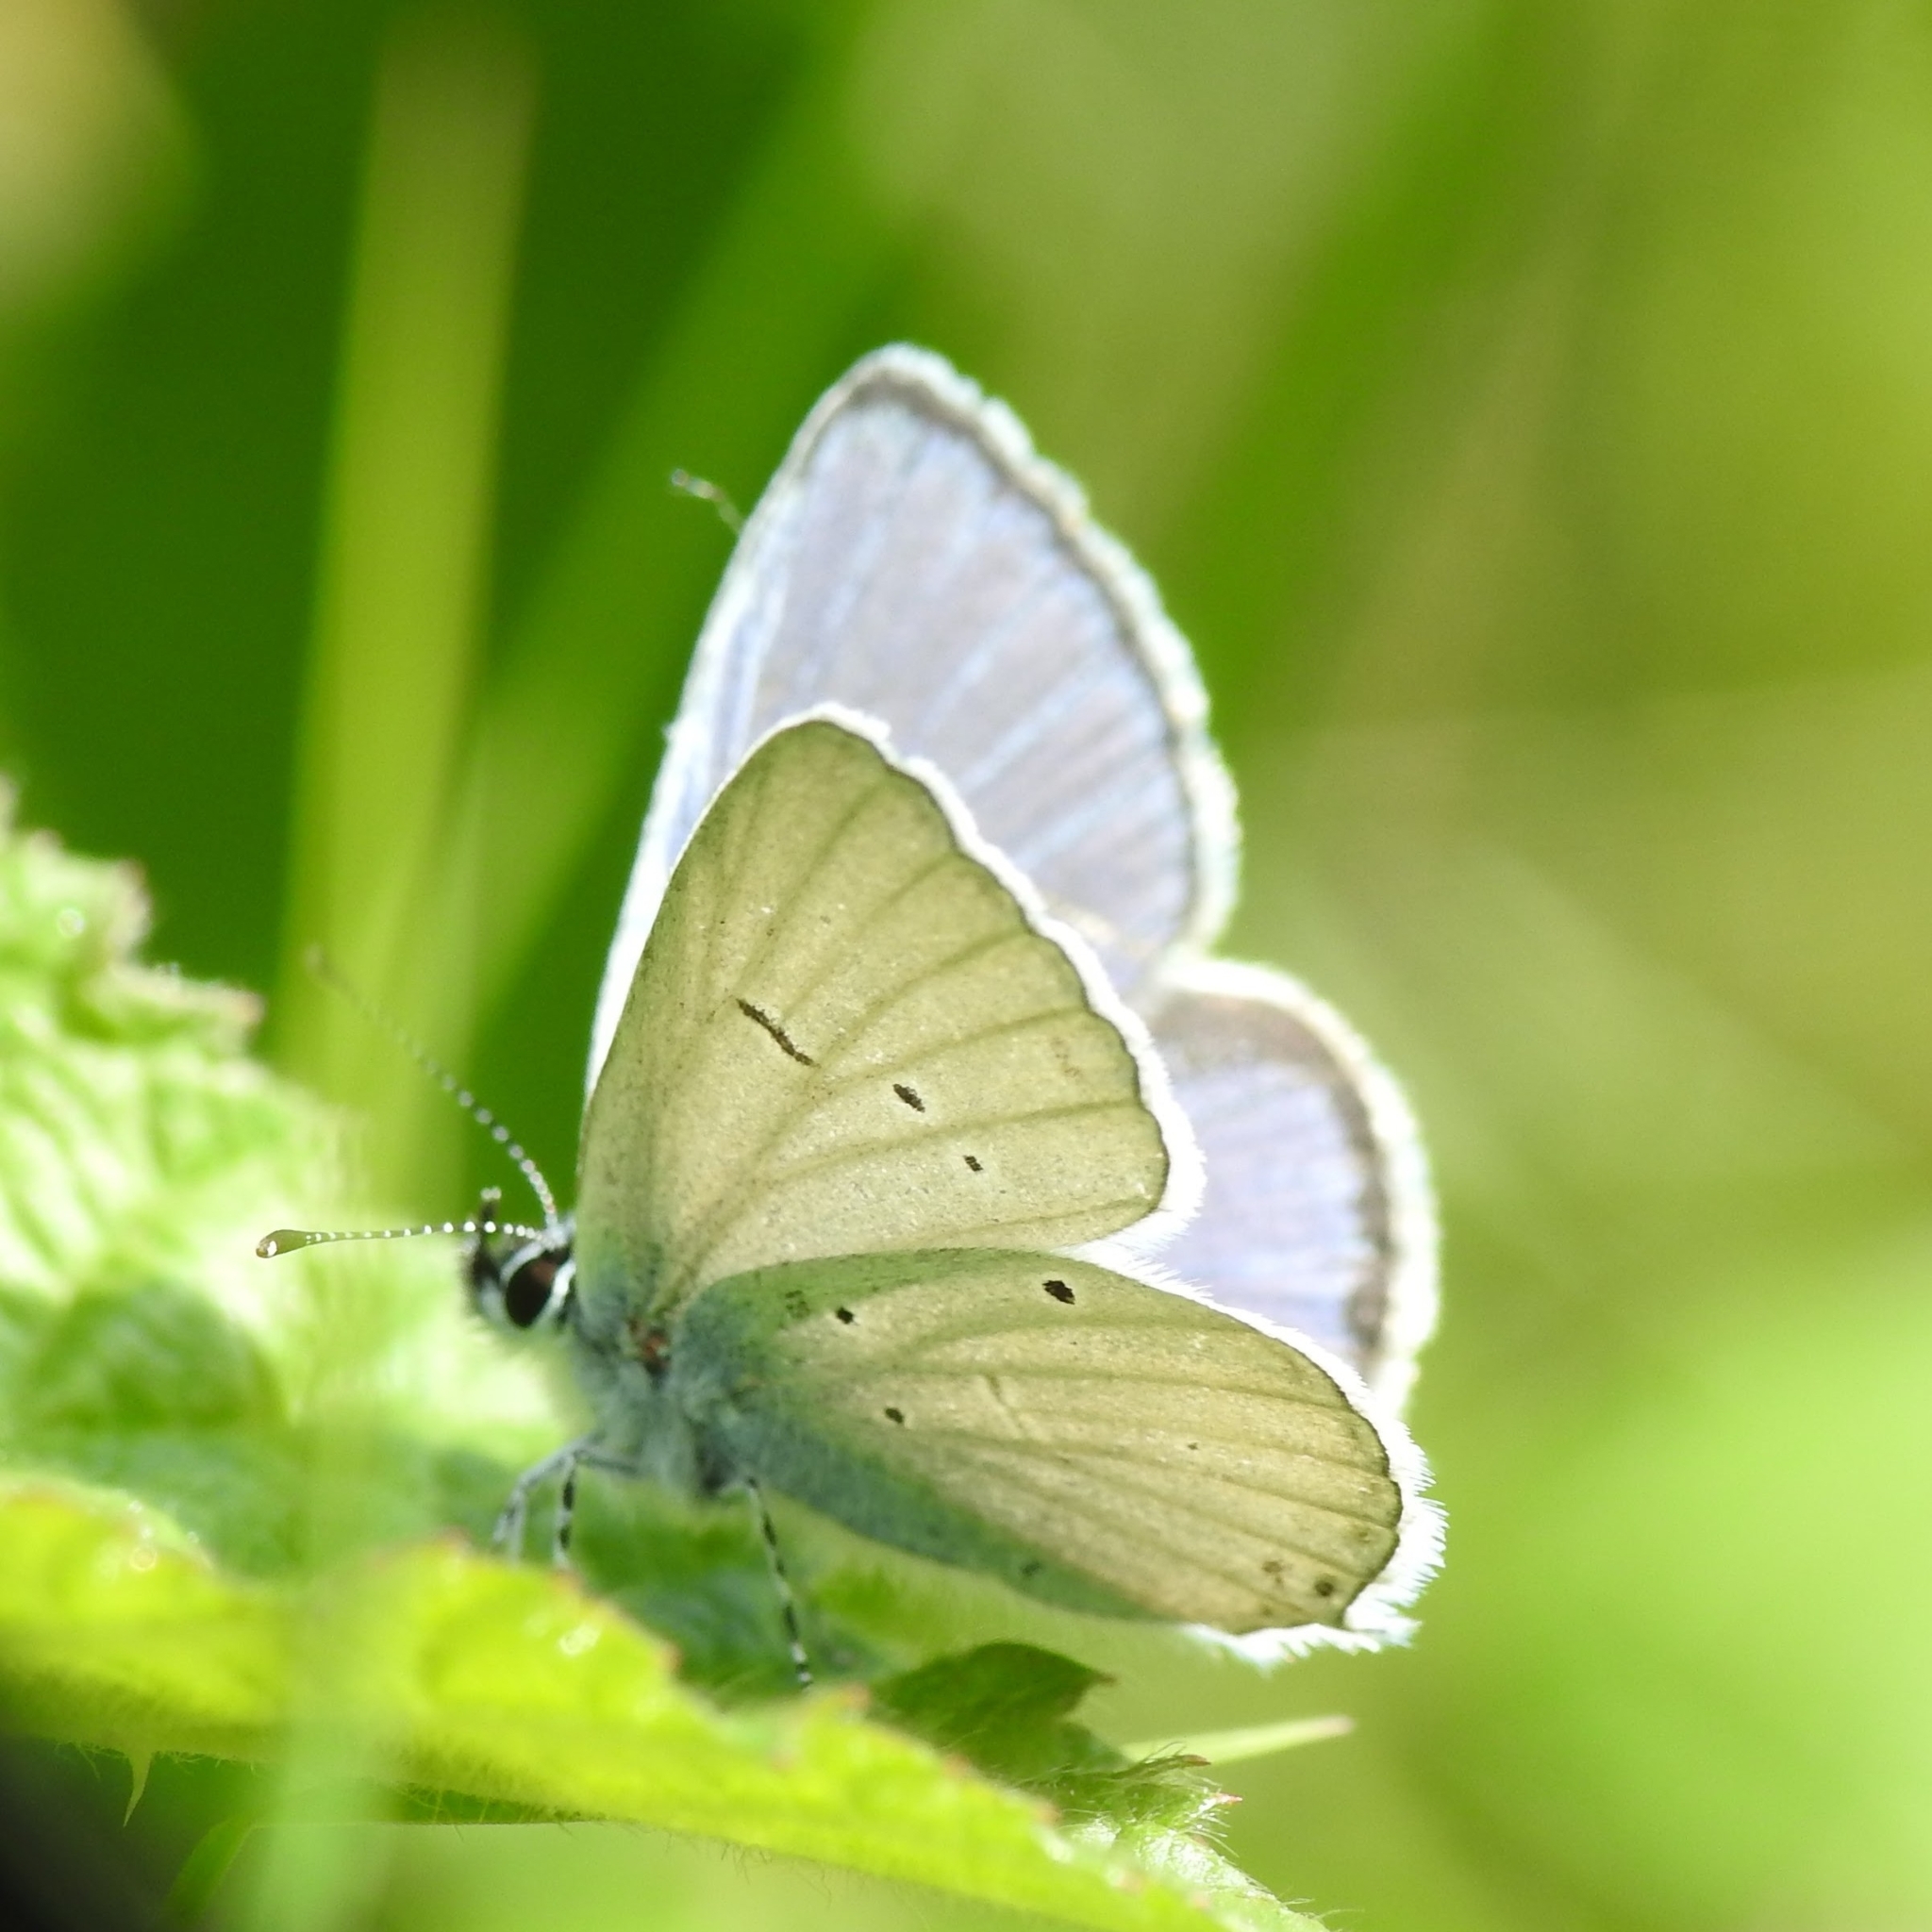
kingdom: Animalia
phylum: Arthropoda
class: Insecta
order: Lepidoptera
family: Lycaenidae
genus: Elkalyce
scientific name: Elkalyce alcetas
